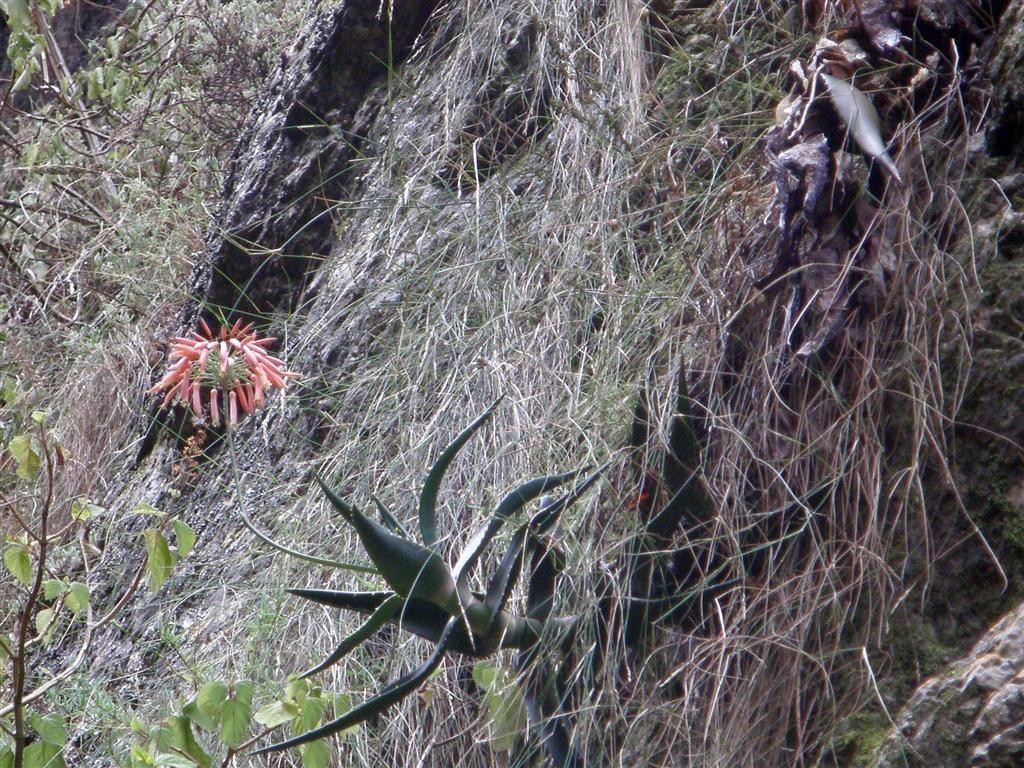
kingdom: Plantae
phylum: Tracheophyta
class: Liliopsida
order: Asparagales
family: Asphodelaceae
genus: Aloe
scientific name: Aloe perfoliata
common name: Mitra aloe
